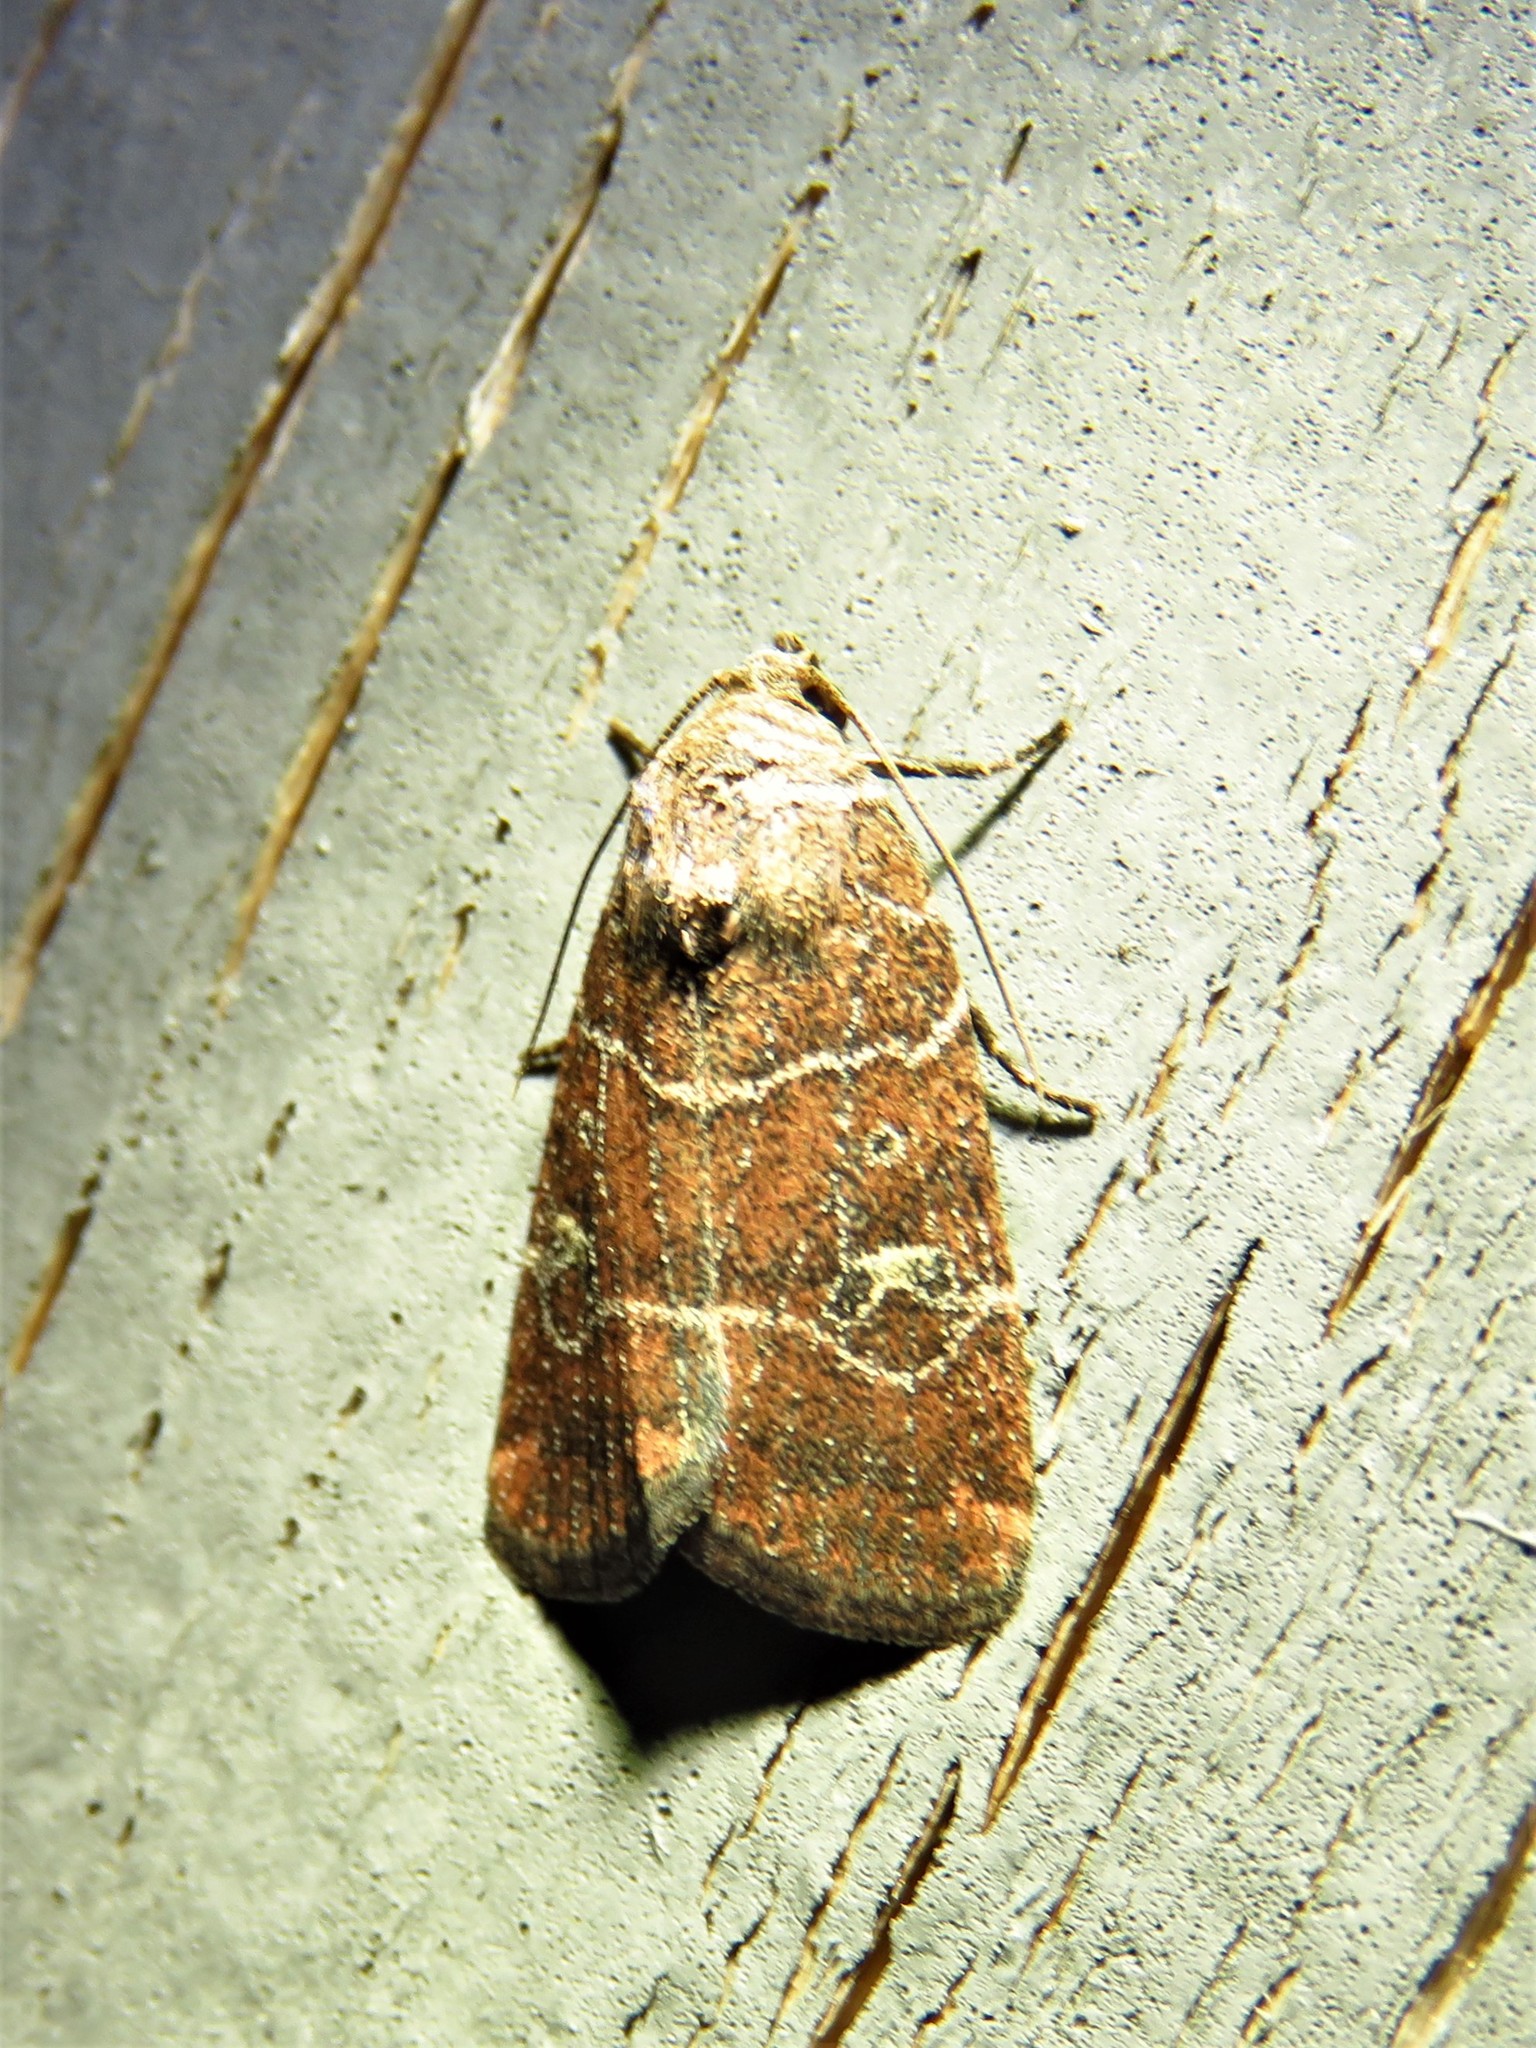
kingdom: Animalia
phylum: Arthropoda
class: Insecta
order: Lepidoptera
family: Noctuidae
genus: Elaphria
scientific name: Elaphria grata
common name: Grateful midget moth
